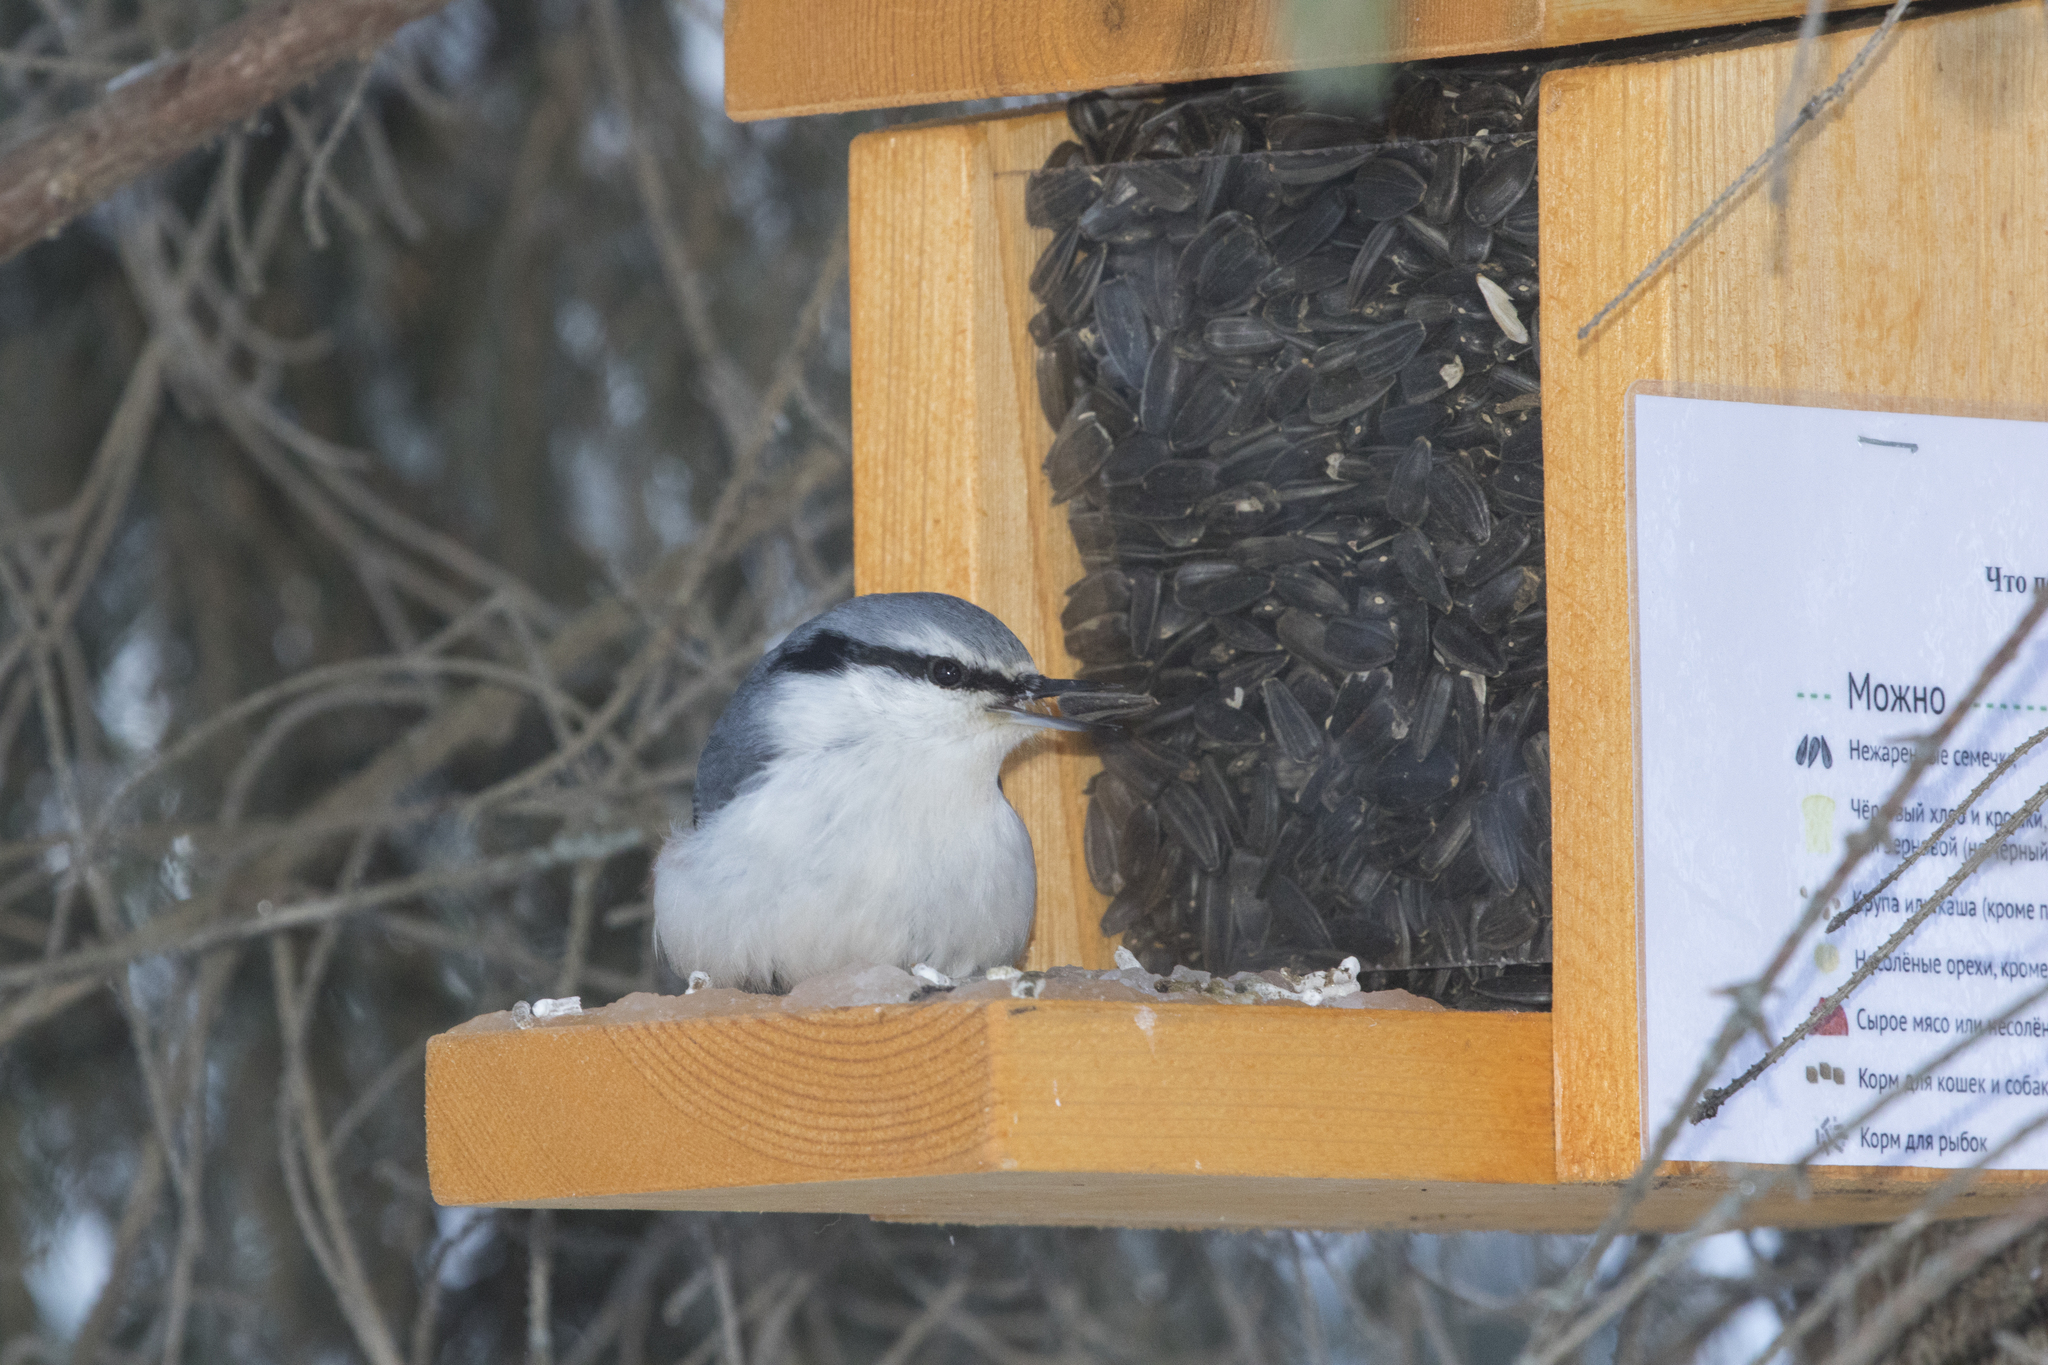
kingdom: Animalia
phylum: Chordata
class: Aves
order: Passeriformes
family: Sittidae
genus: Sitta
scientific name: Sitta europaea
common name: Eurasian nuthatch
